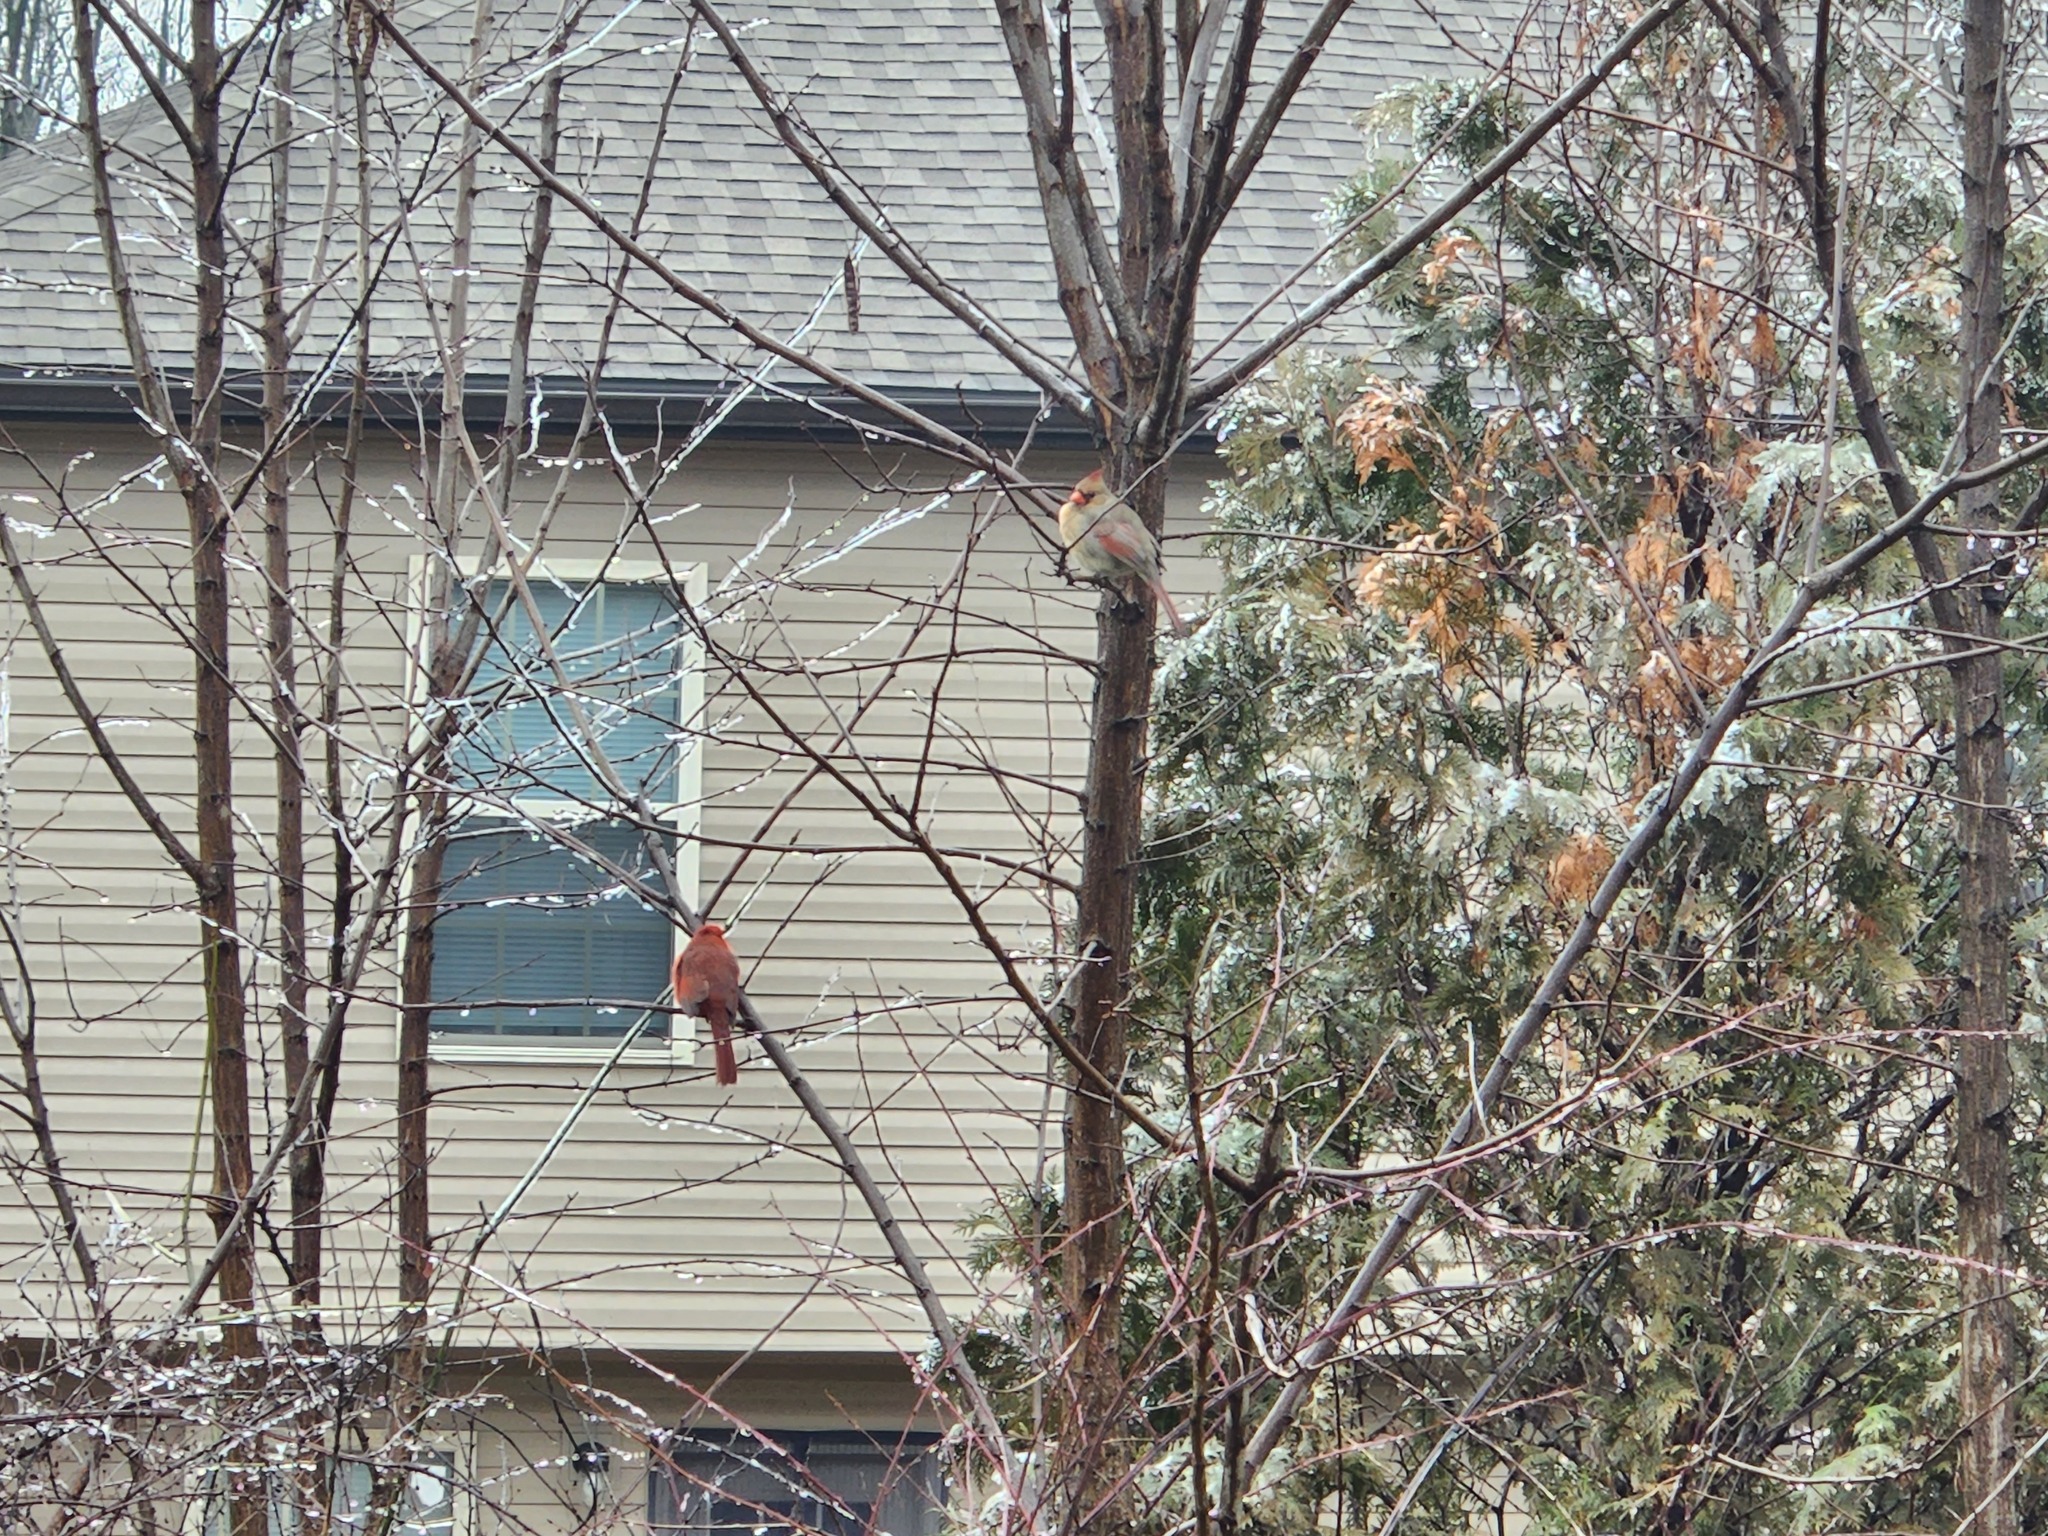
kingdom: Animalia
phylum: Chordata
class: Aves
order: Passeriformes
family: Cardinalidae
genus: Cardinalis
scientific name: Cardinalis cardinalis
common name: Northern cardinal
